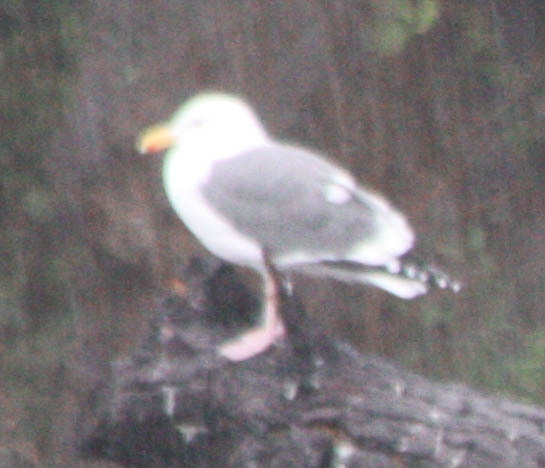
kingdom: Animalia
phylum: Chordata
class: Aves
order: Charadriiformes
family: Laridae
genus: Larus
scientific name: Larus occidentalis
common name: Western gull
